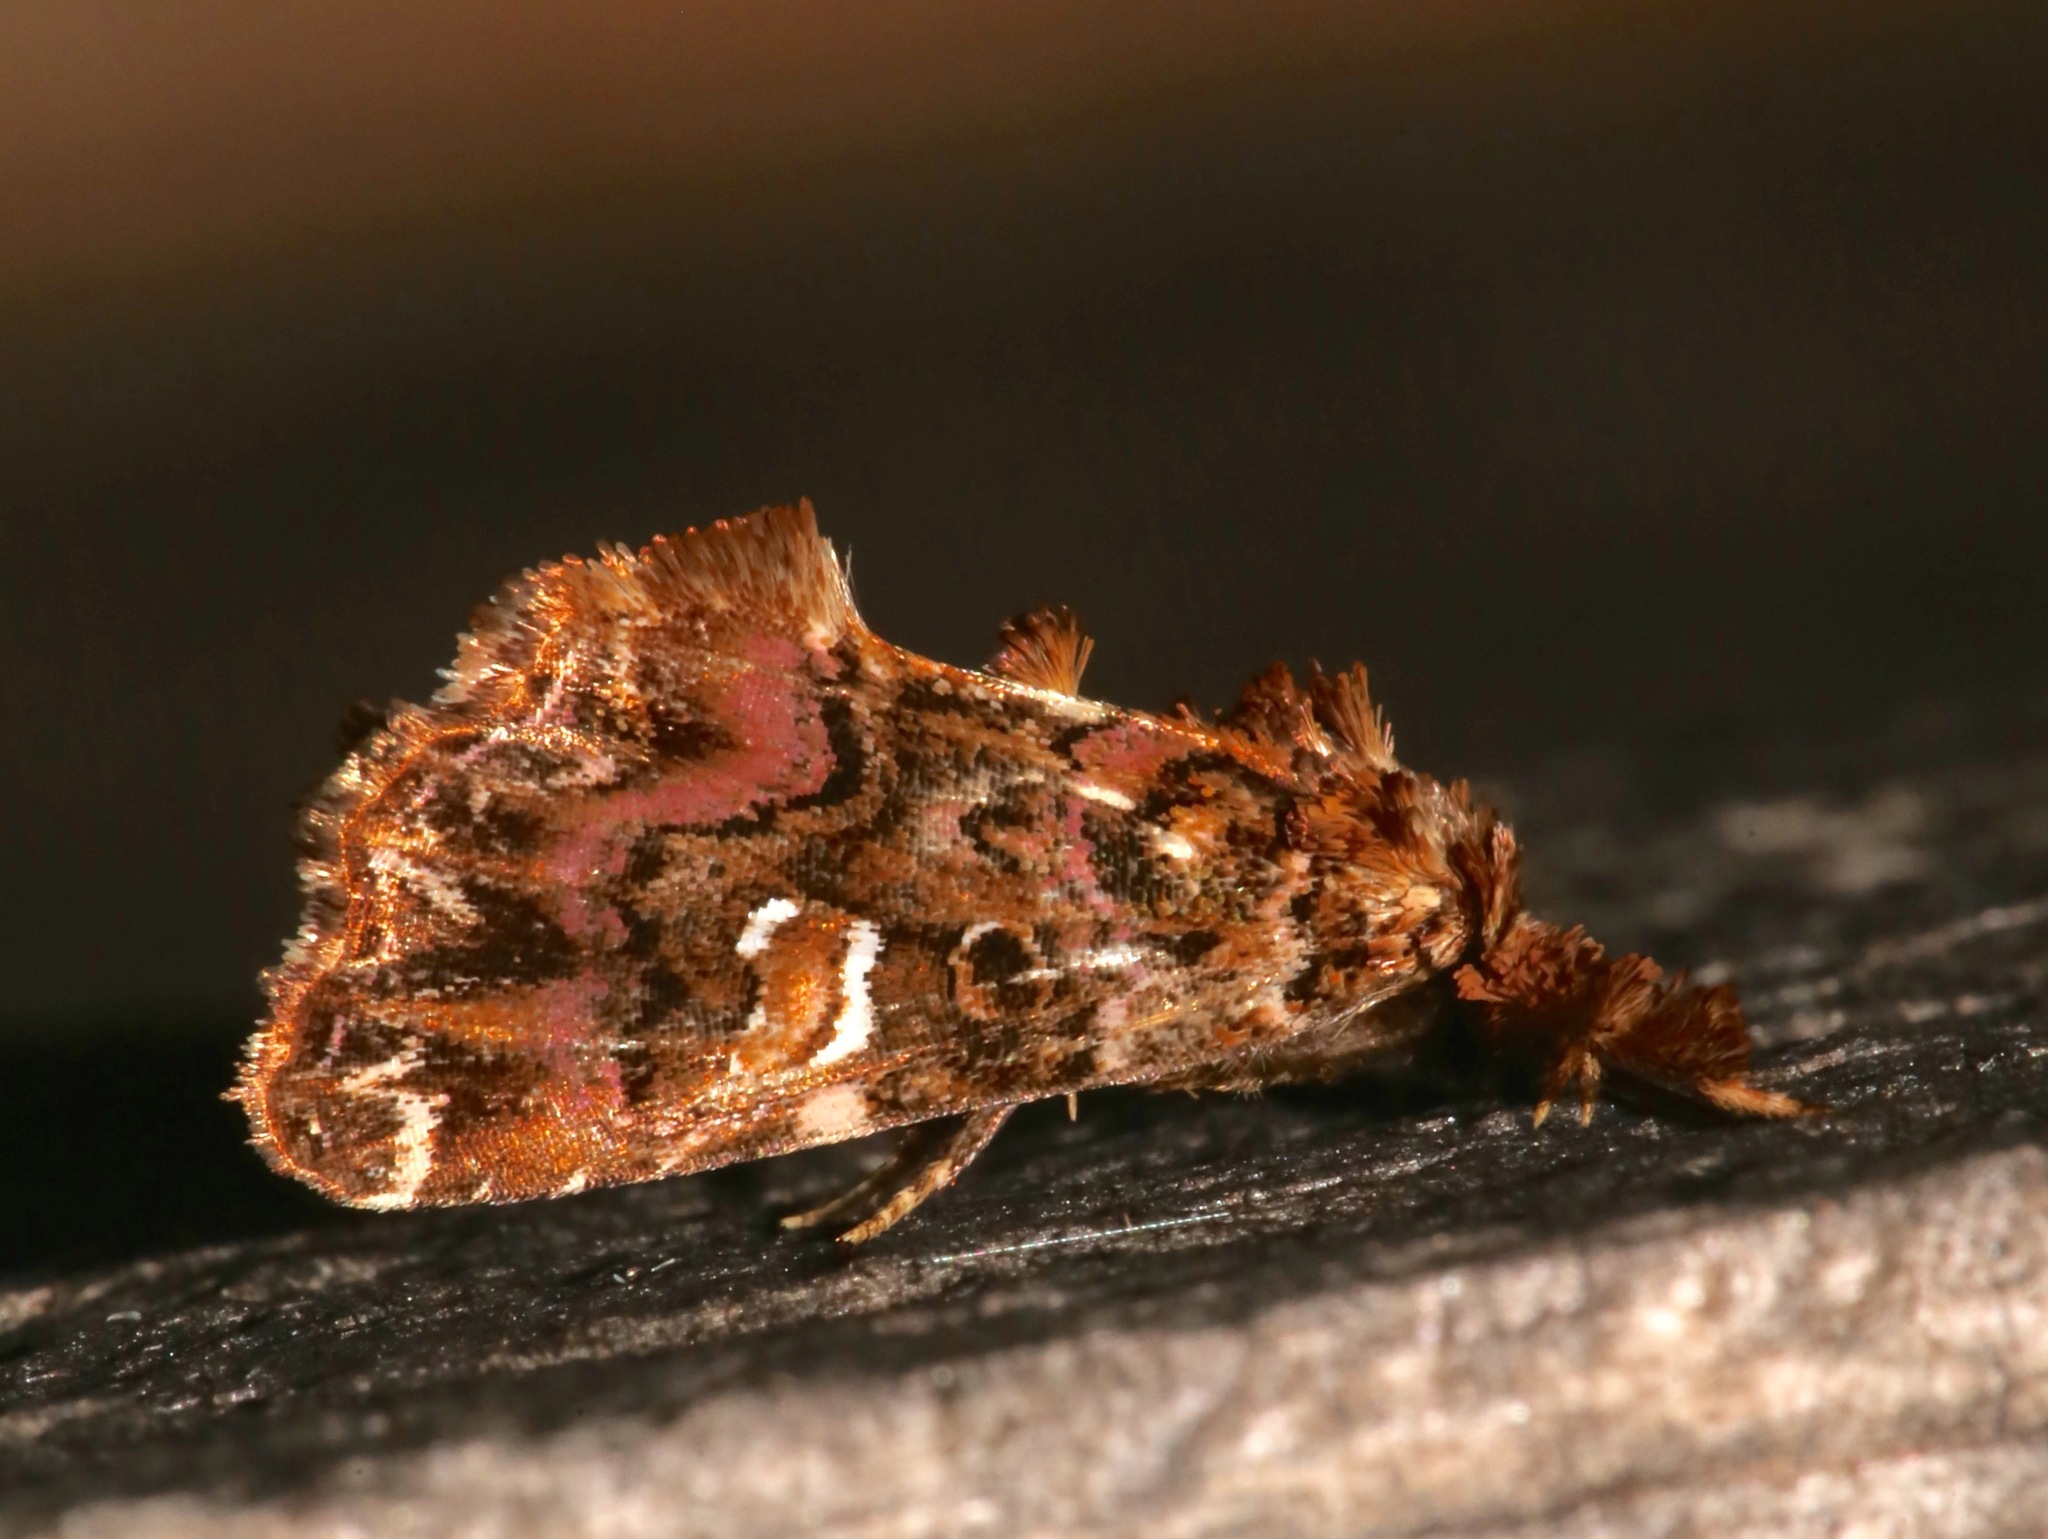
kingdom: Animalia
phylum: Arthropoda
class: Insecta
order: Lepidoptera
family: Noctuidae
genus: Callopistria
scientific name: Callopistria mollissima
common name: Pink-shaded fern moth
